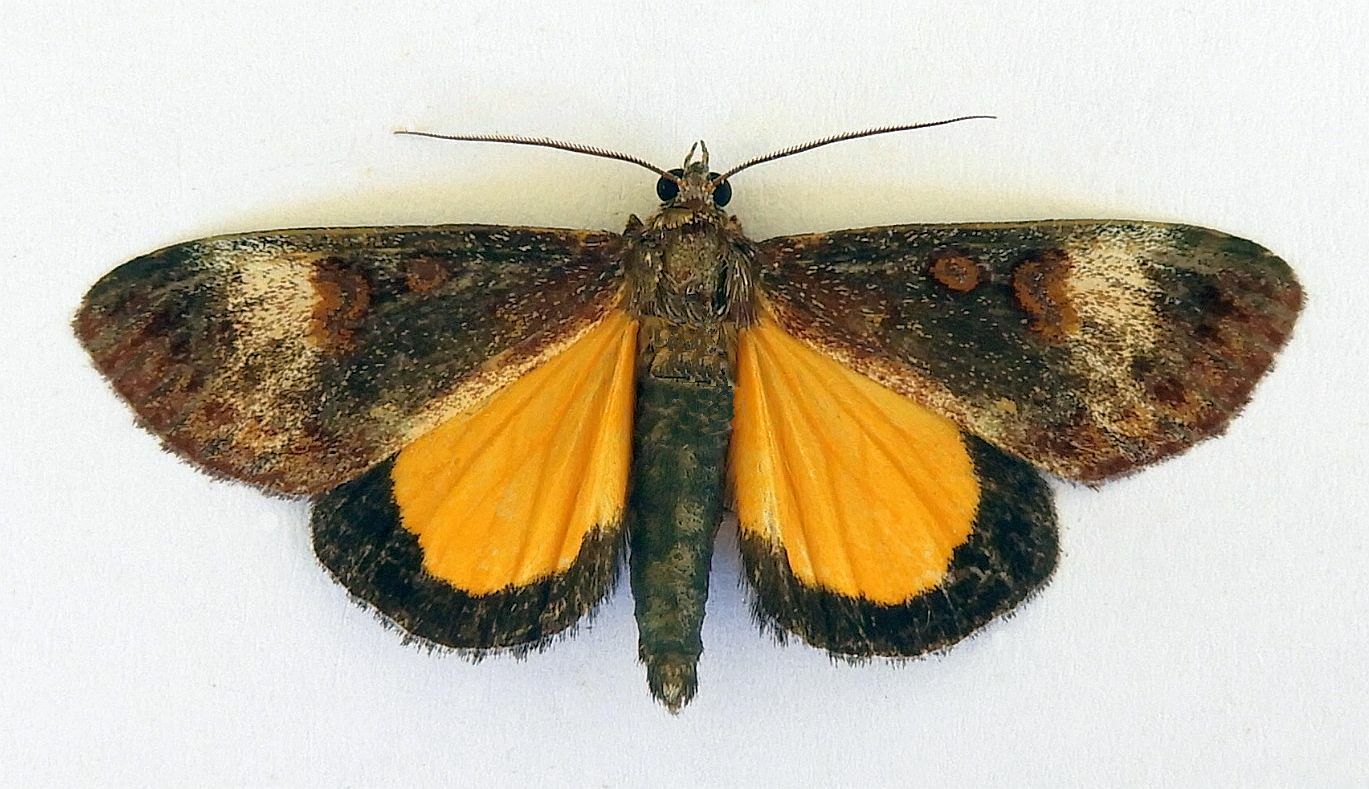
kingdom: Animalia
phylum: Arthropoda
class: Insecta
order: Lepidoptera
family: Noctuidae
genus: Gerra
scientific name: Gerra sevorsa
